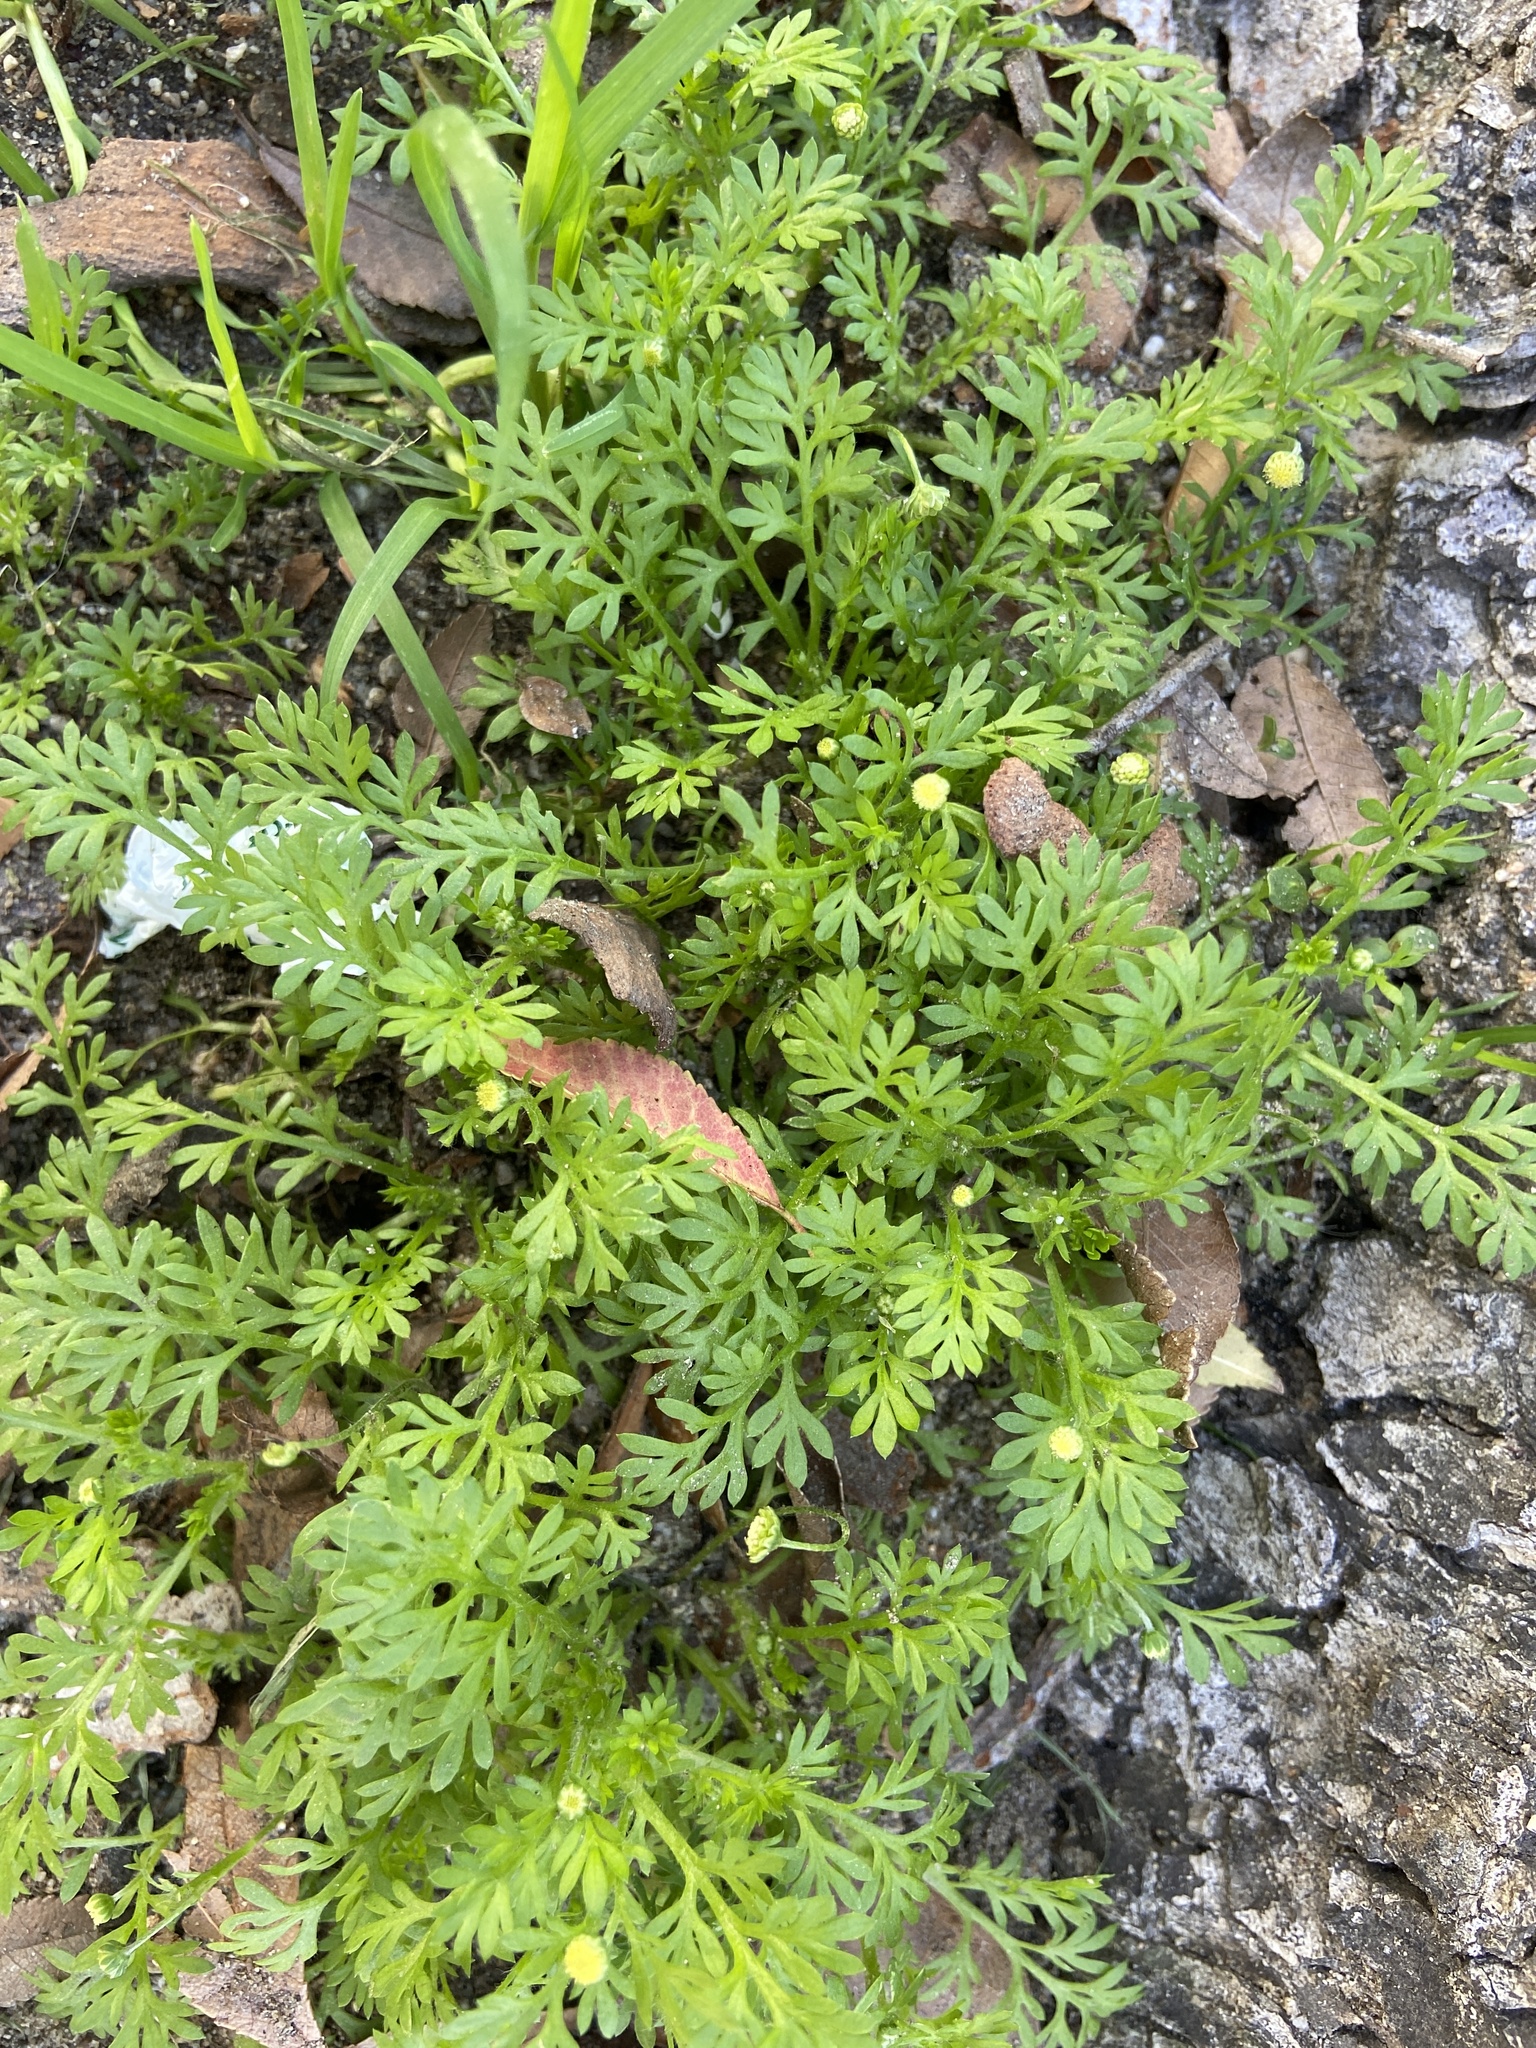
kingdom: Plantae
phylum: Tracheophyta
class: Magnoliopsida
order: Asterales
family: Asteraceae
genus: Cotula
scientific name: Cotula australis
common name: Australian waterbuttons
